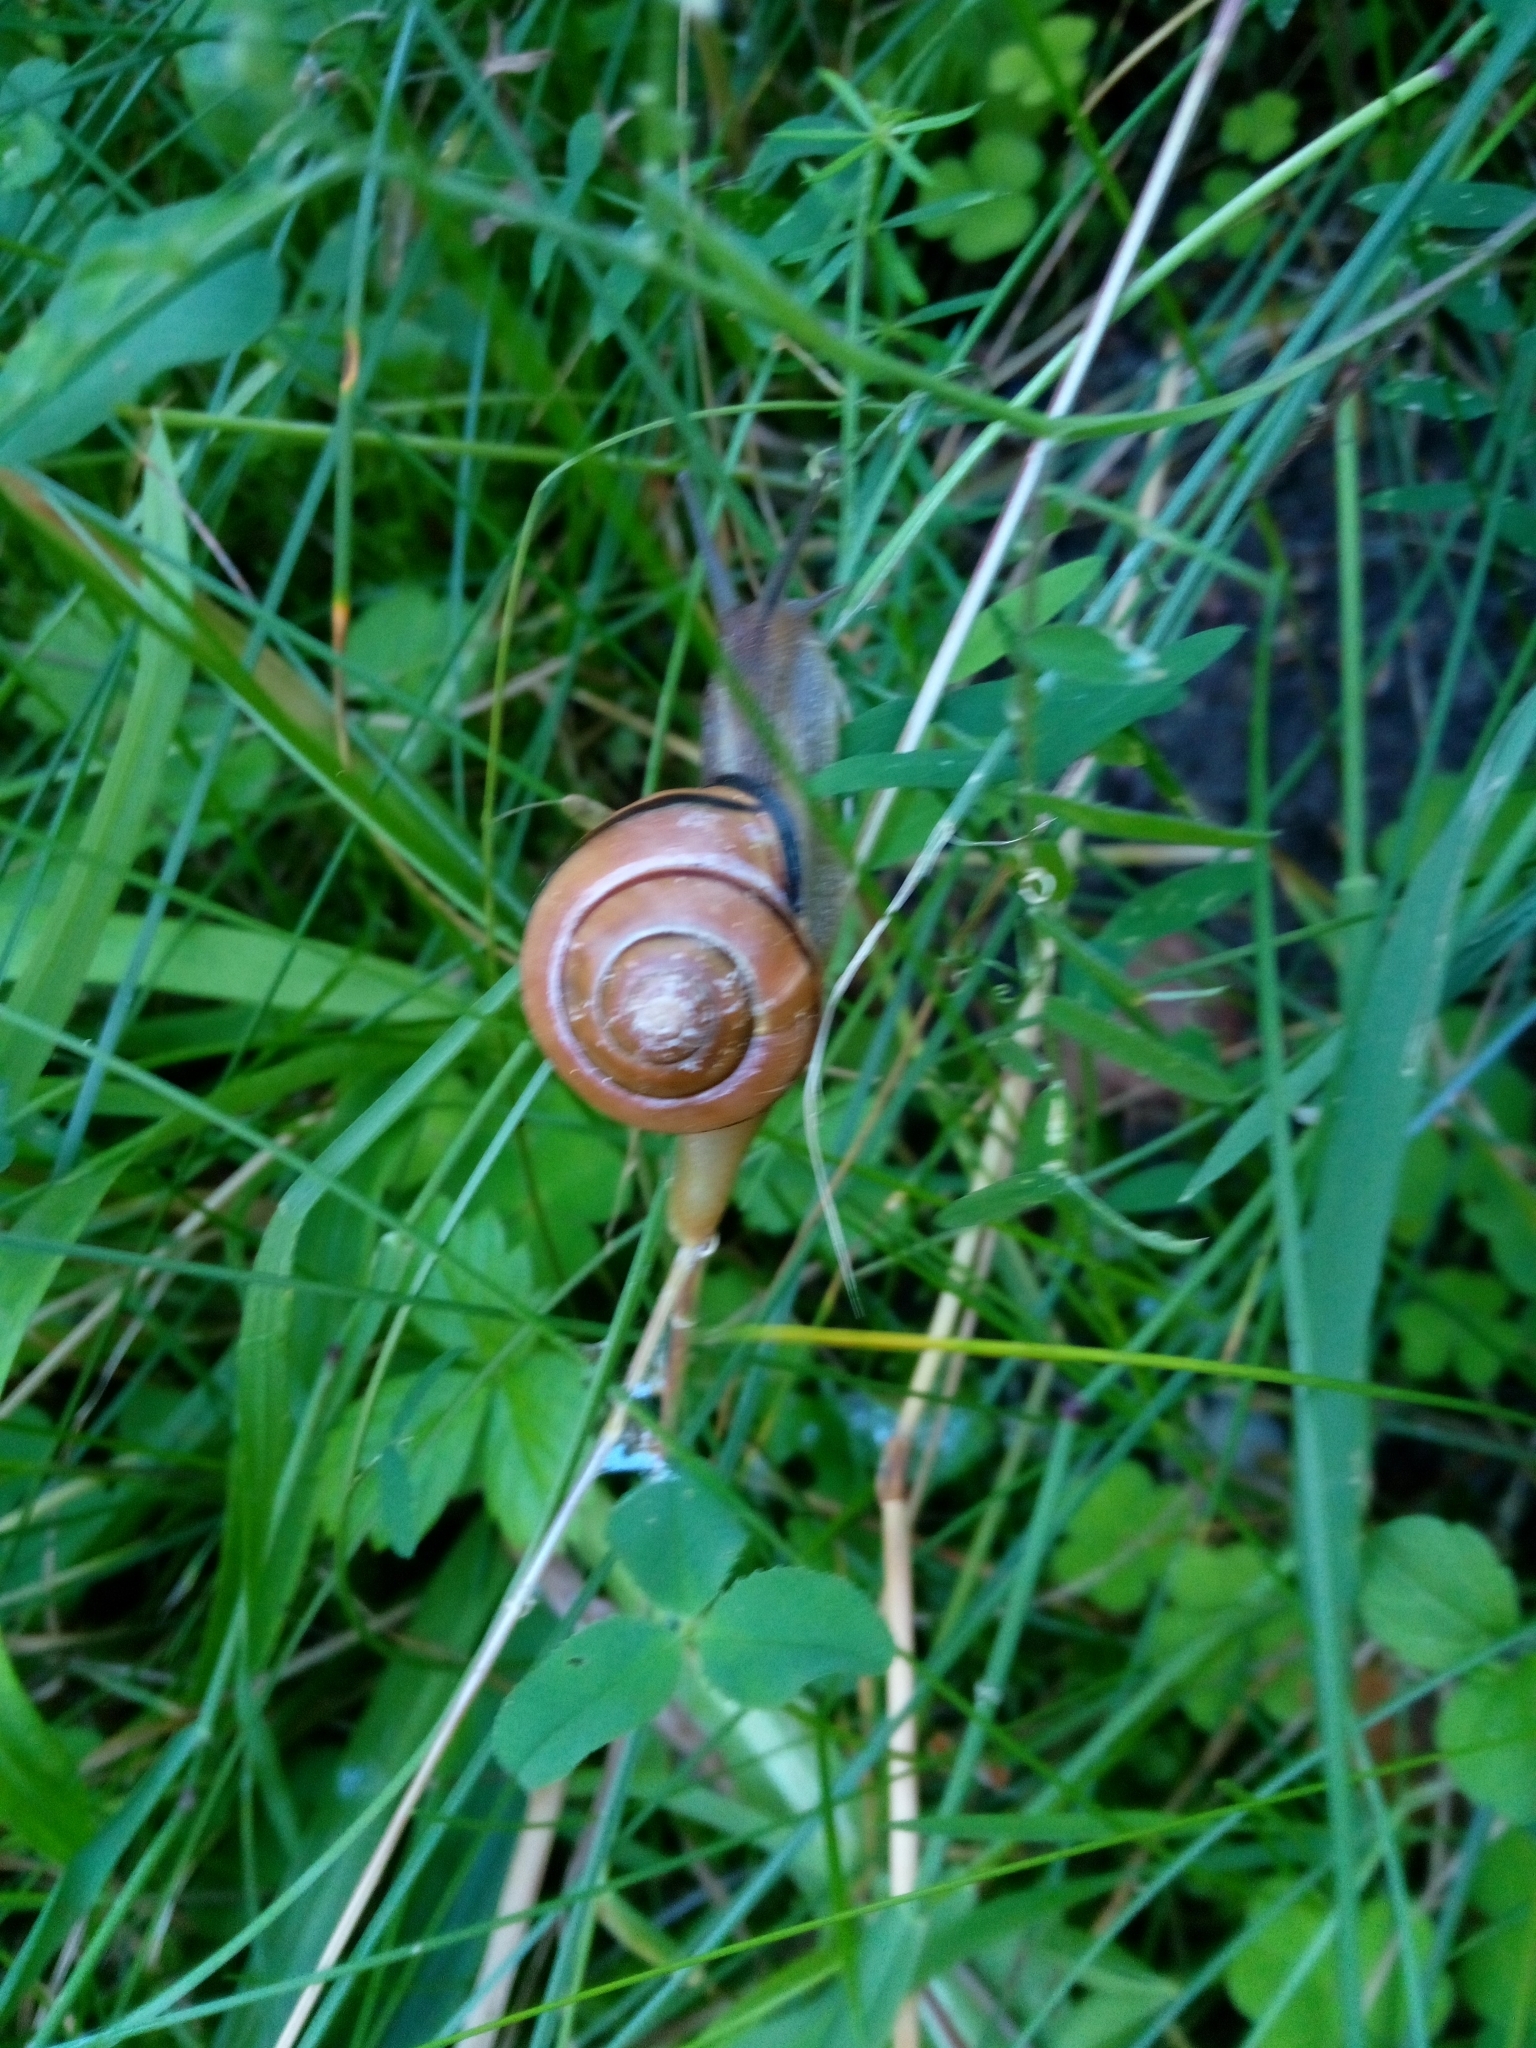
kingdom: Animalia
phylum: Mollusca
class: Gastropoda
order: Stylommatophora
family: Helicidae
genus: Cepaea
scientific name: Cepaea nemoralis
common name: Grovesnail
